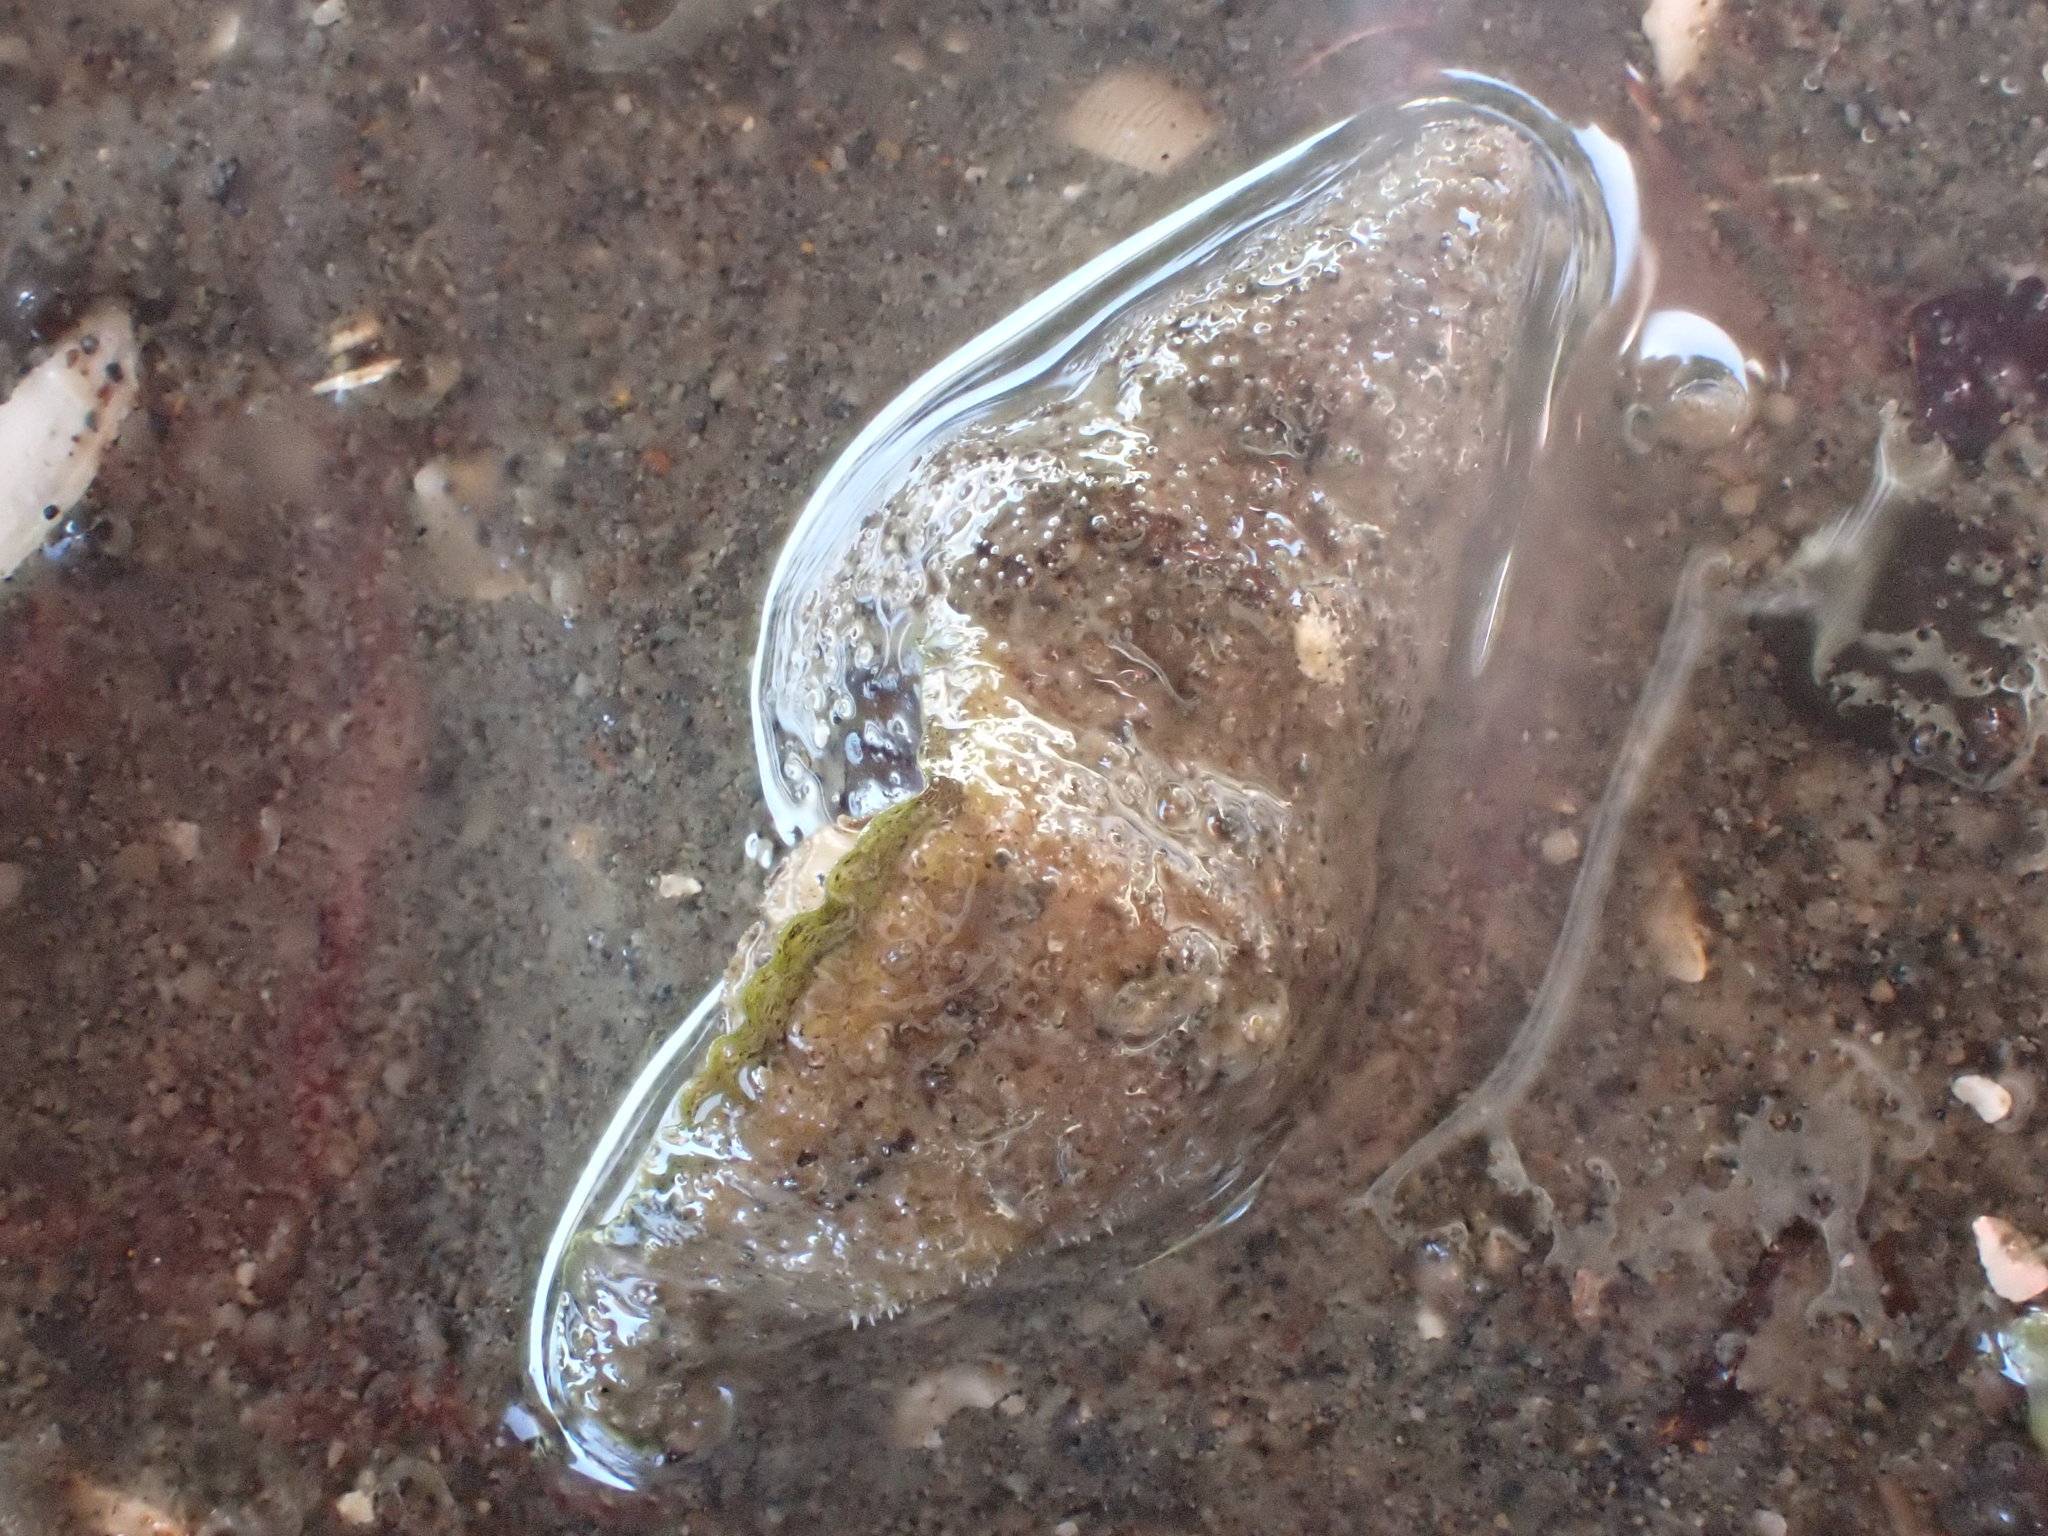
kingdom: Animalia
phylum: Mollusca
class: Gastropoda
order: Neogastropoda
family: Muricidae
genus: Xymene
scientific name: Xymene plebeius
